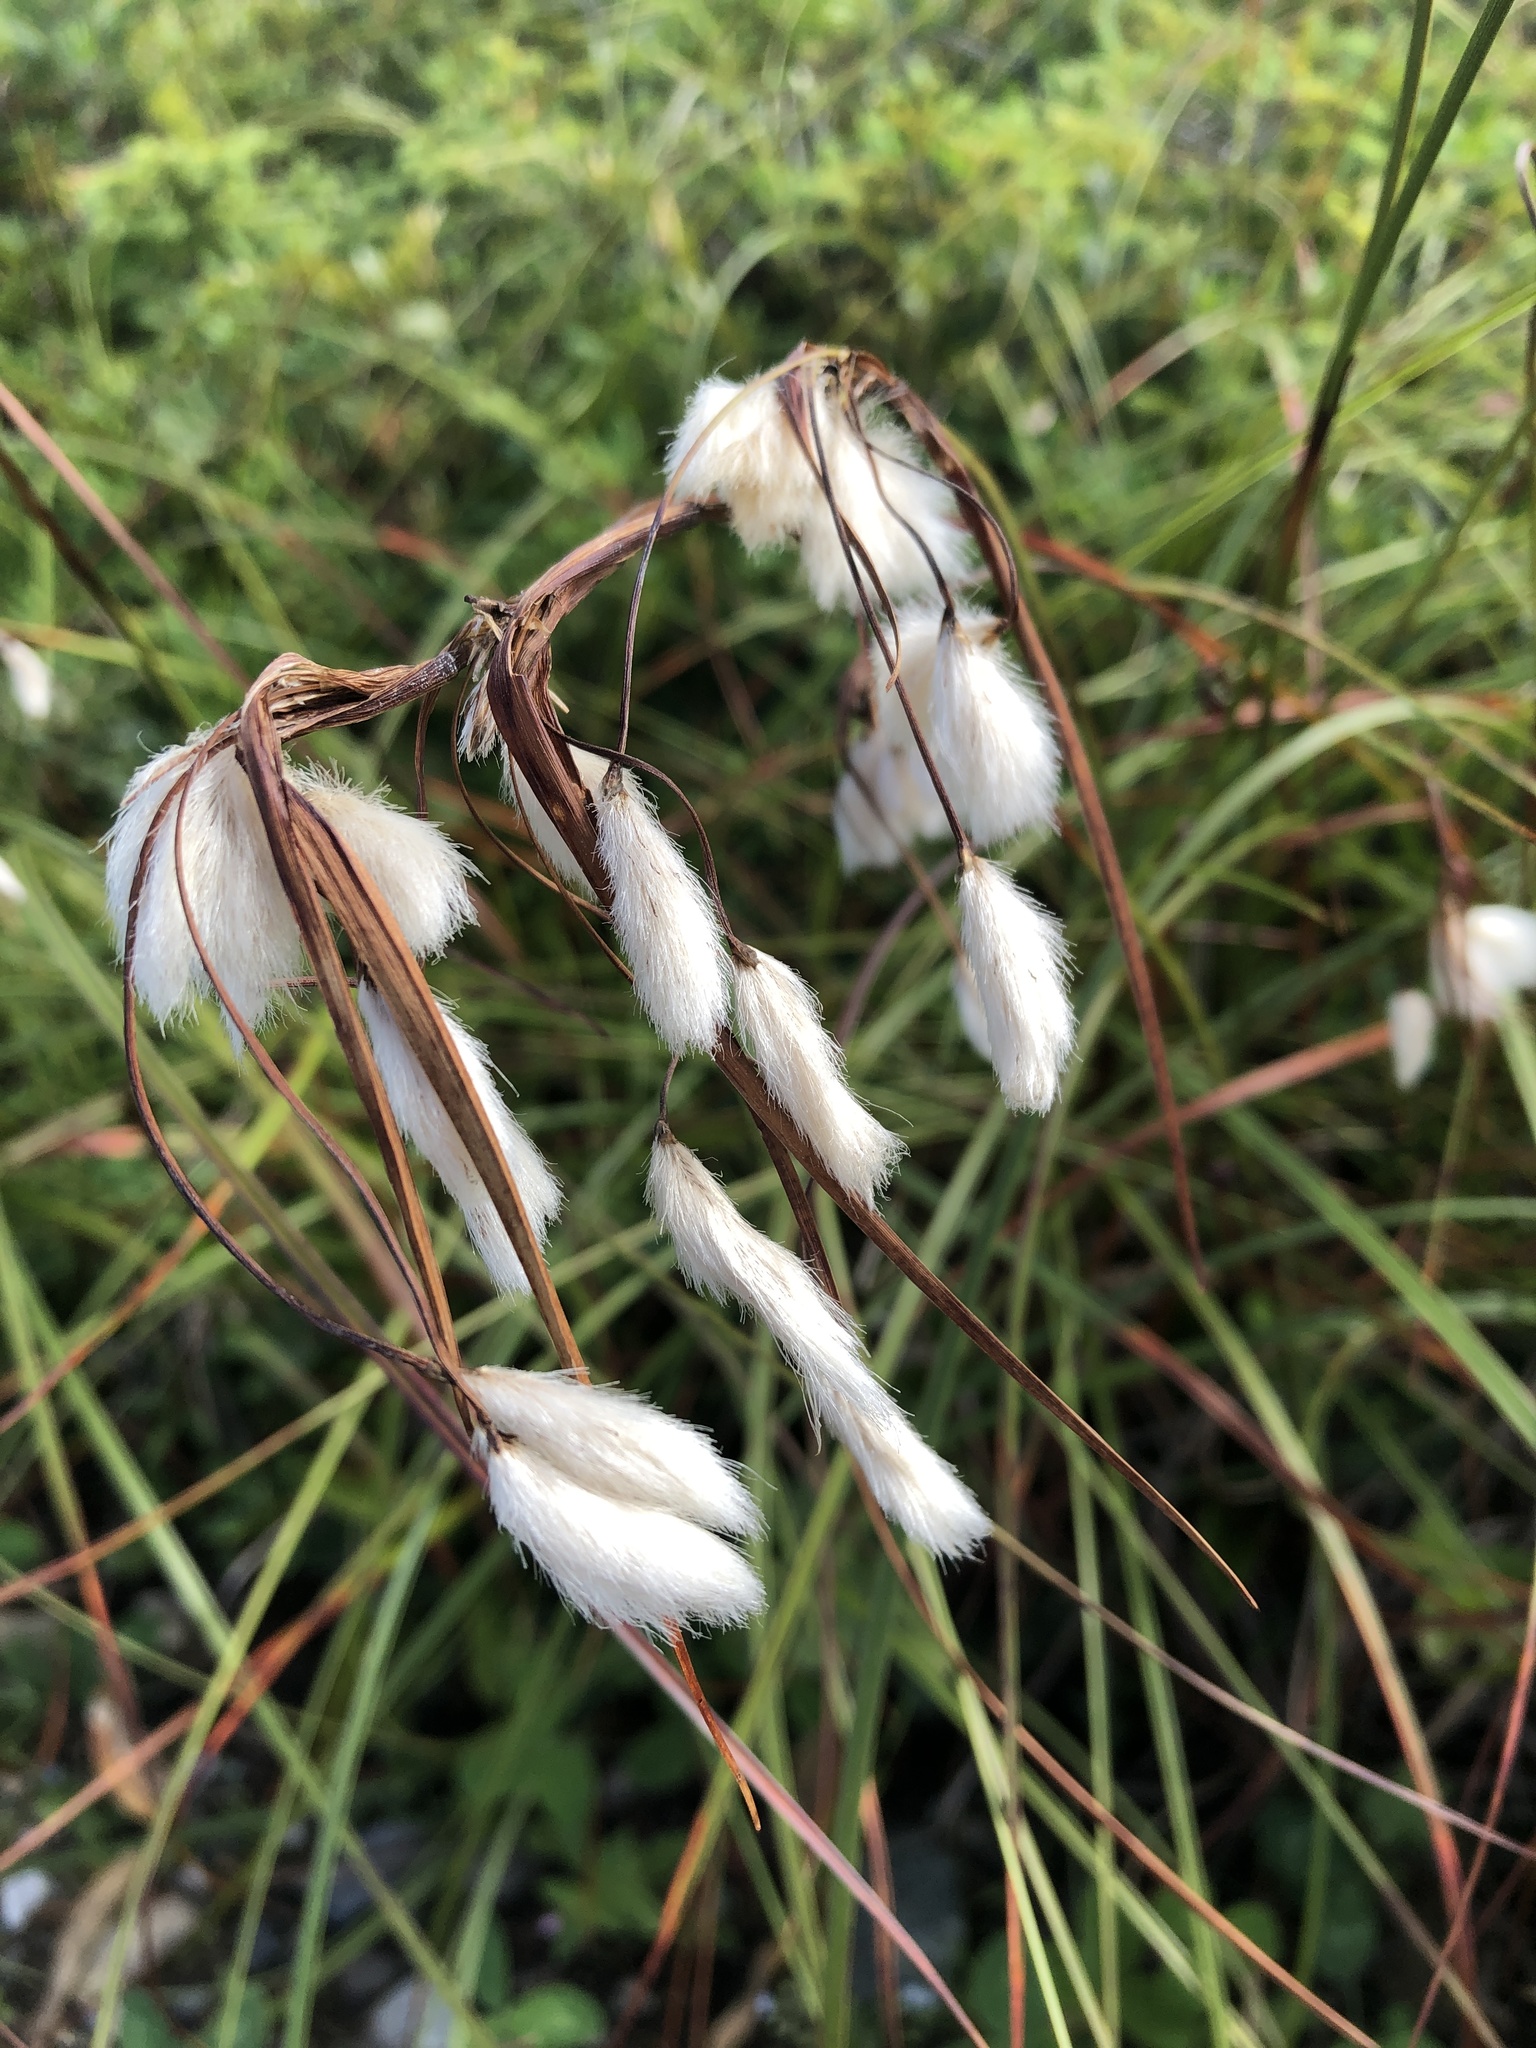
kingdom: Plantae
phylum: Tracheophyta
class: Liliopsida
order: Poales
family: Cyperaceae
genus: Eriophorum
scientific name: Eriophorum angustifolium
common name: Common cottongrass
